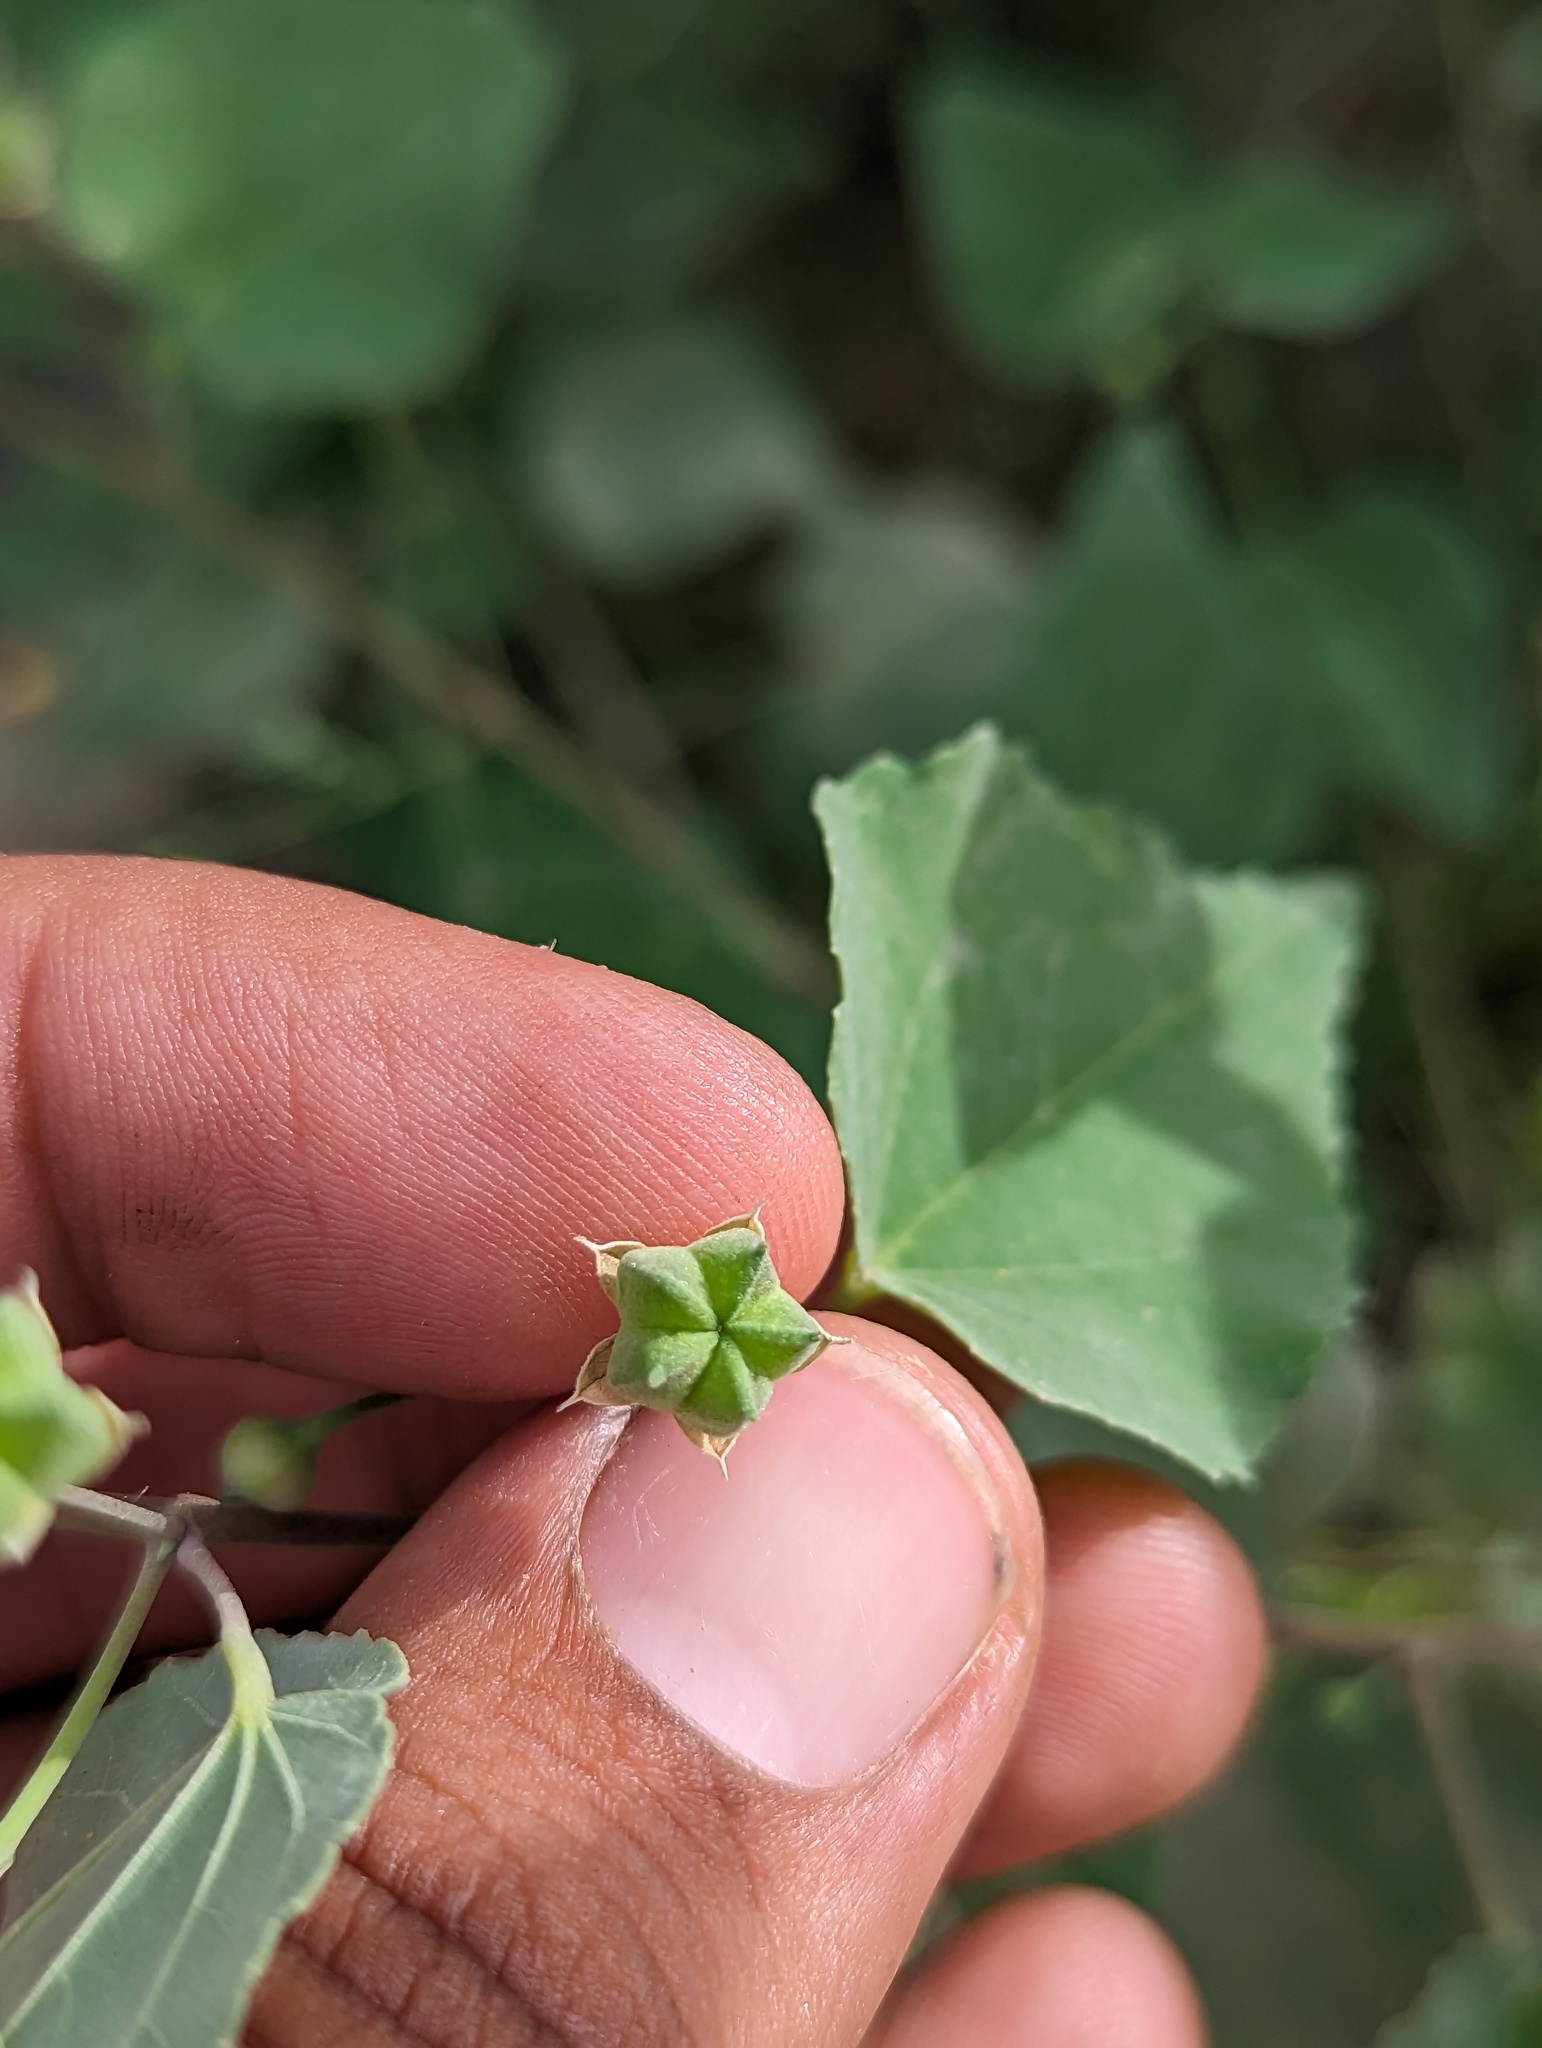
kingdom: Plantae
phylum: Tracheophyta
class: Magnoliopsida
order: Malvales
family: Malvaceae
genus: Abutilon
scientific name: Abutilon incanum
